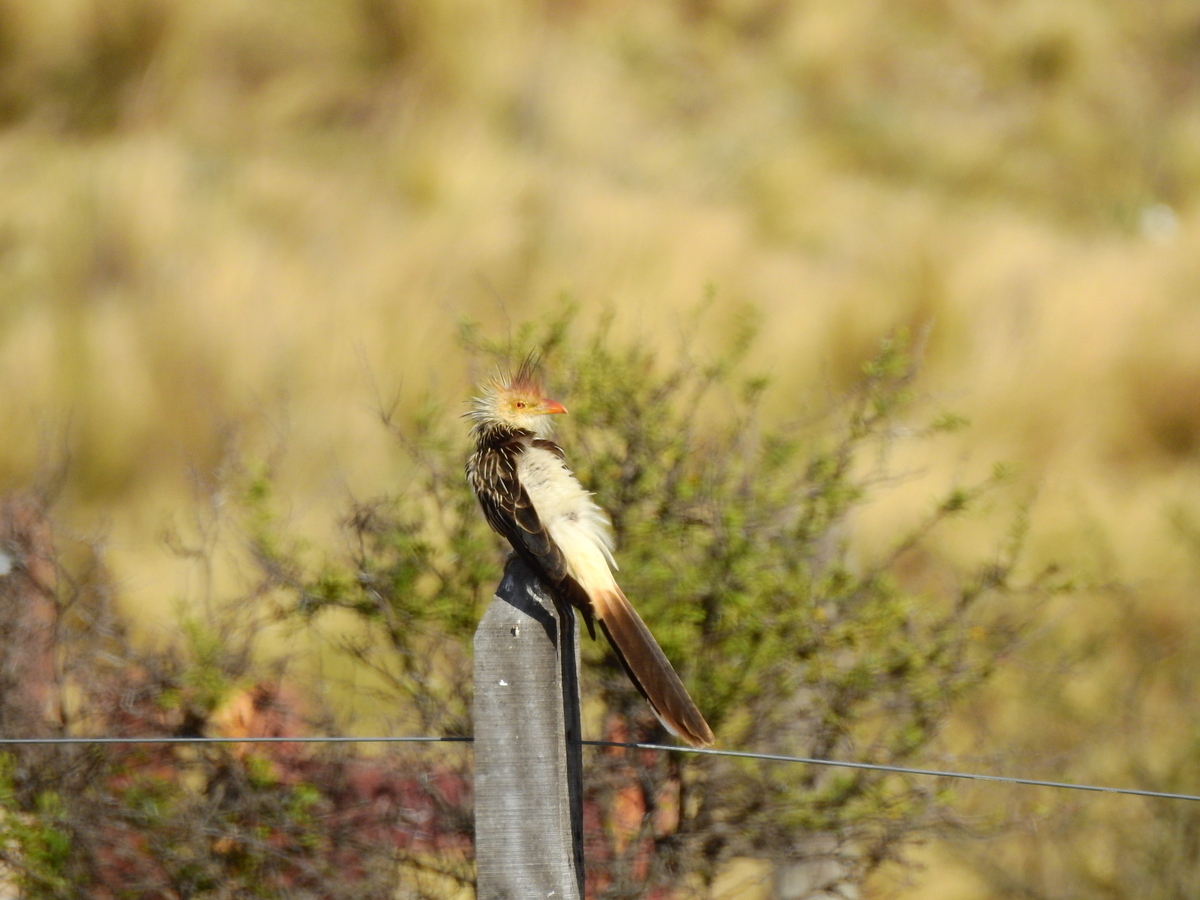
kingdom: Animalia
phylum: Chordata
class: Aves
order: Cuculiformes
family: Cuculidae
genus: Guira
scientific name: Guira guira
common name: Guira cuckoo
